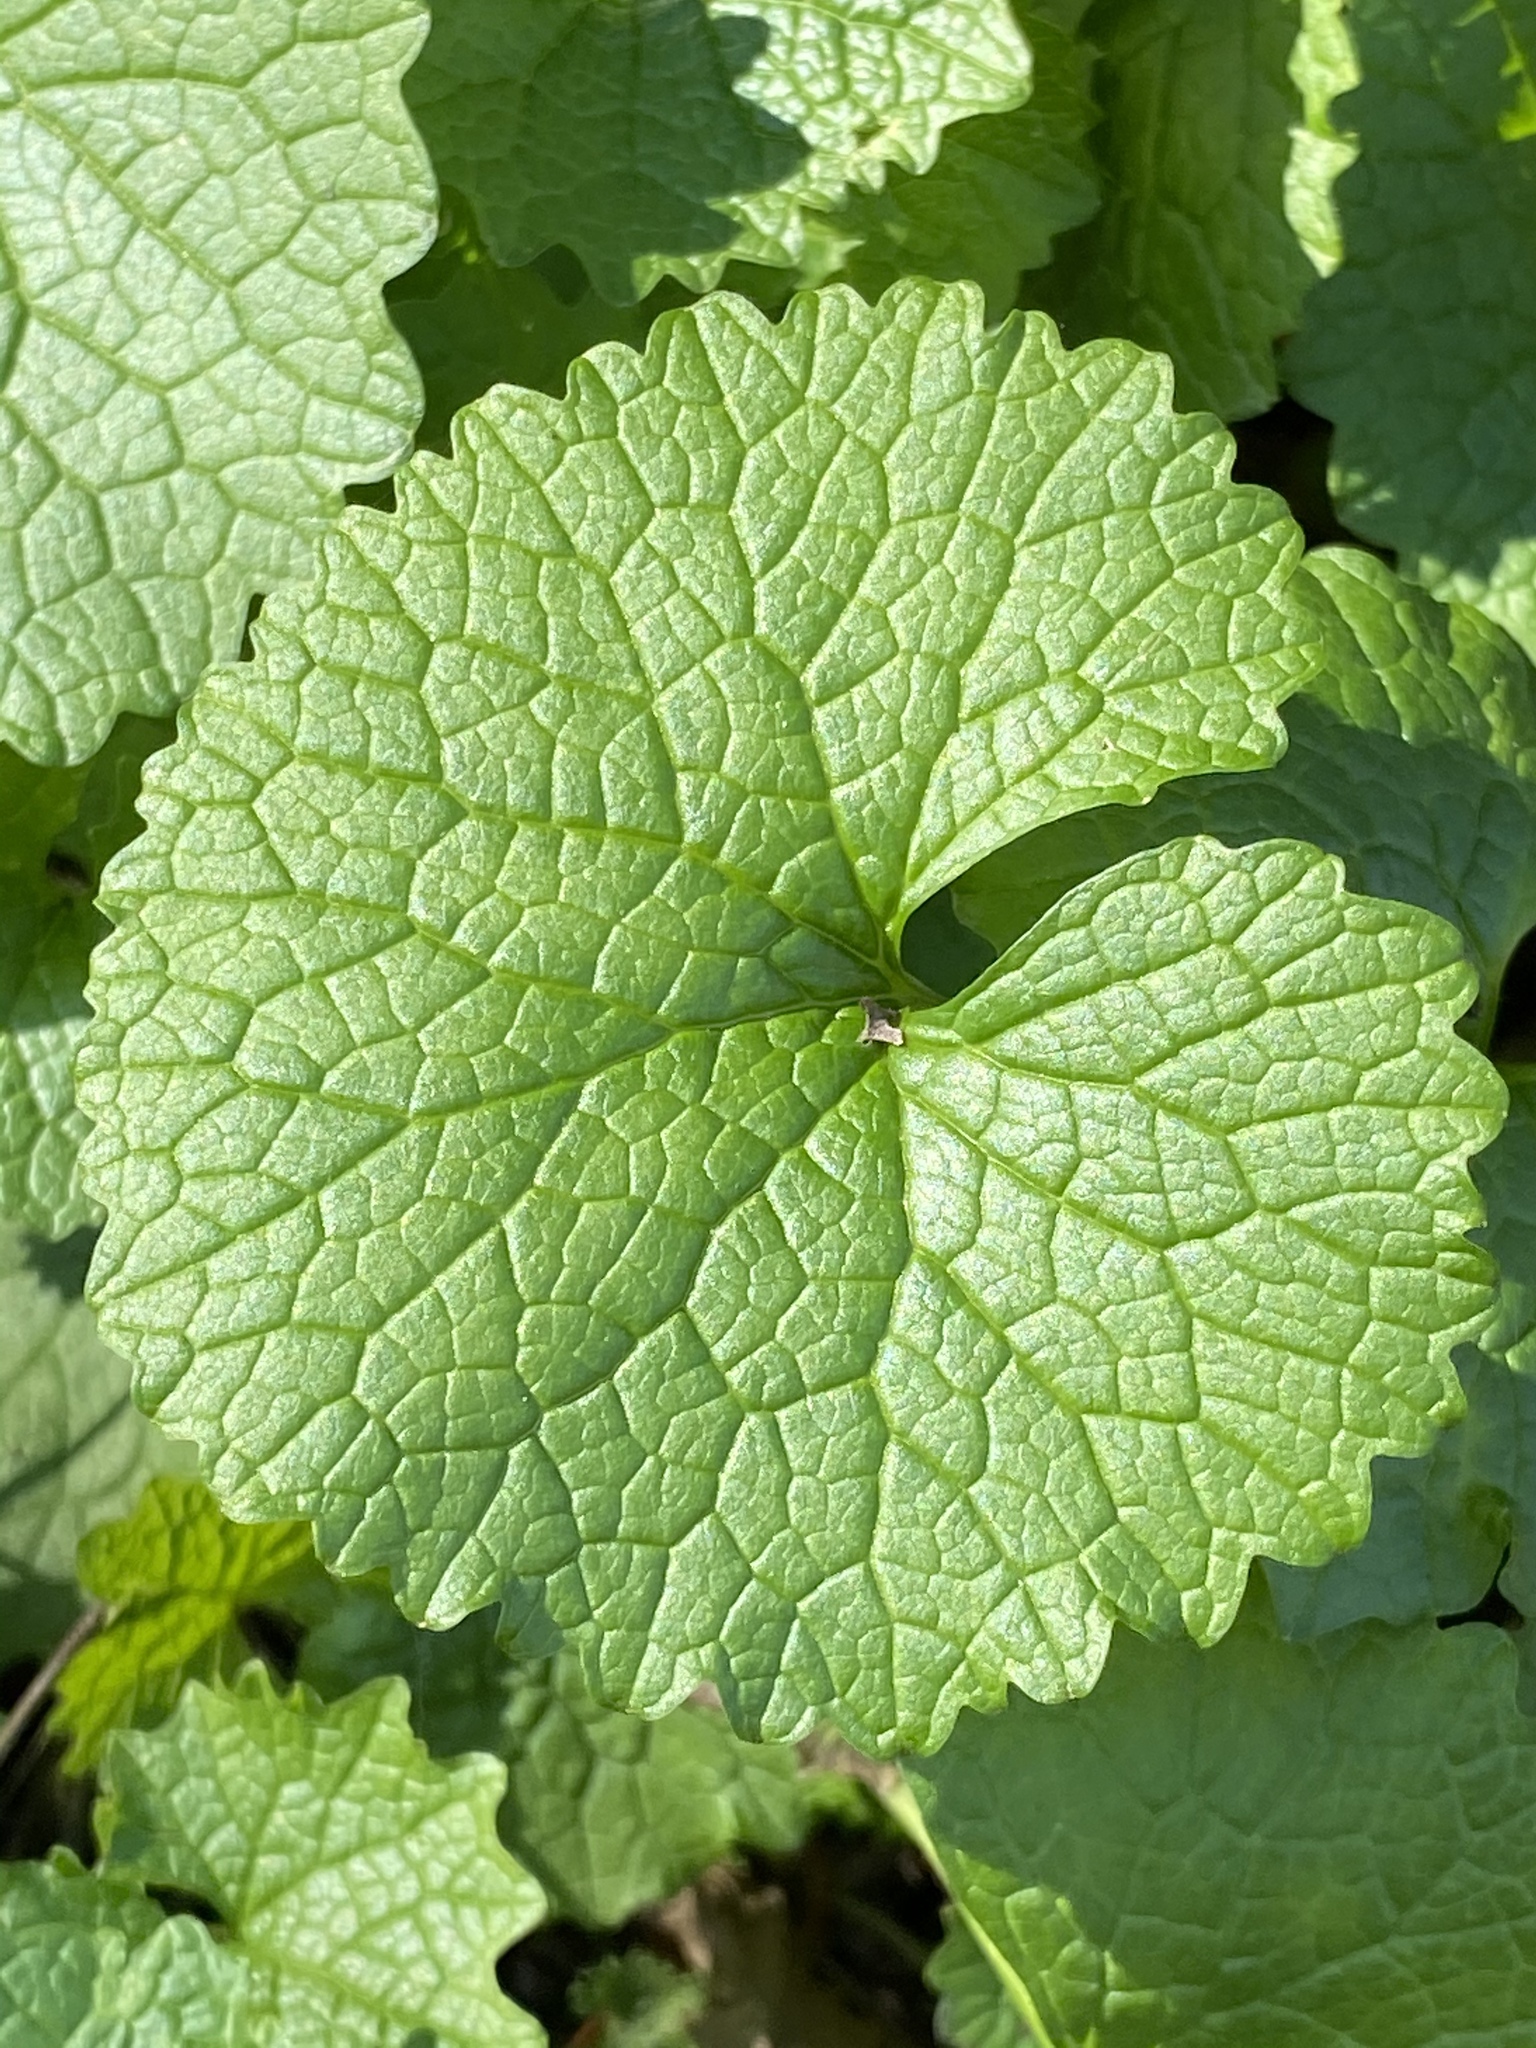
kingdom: Plantae
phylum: Tracheophyta
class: Magnoliopsida
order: Brassicales
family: Brassicaceae
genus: Alliaria
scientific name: Alliaria petiolata
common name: Garlic mustard
